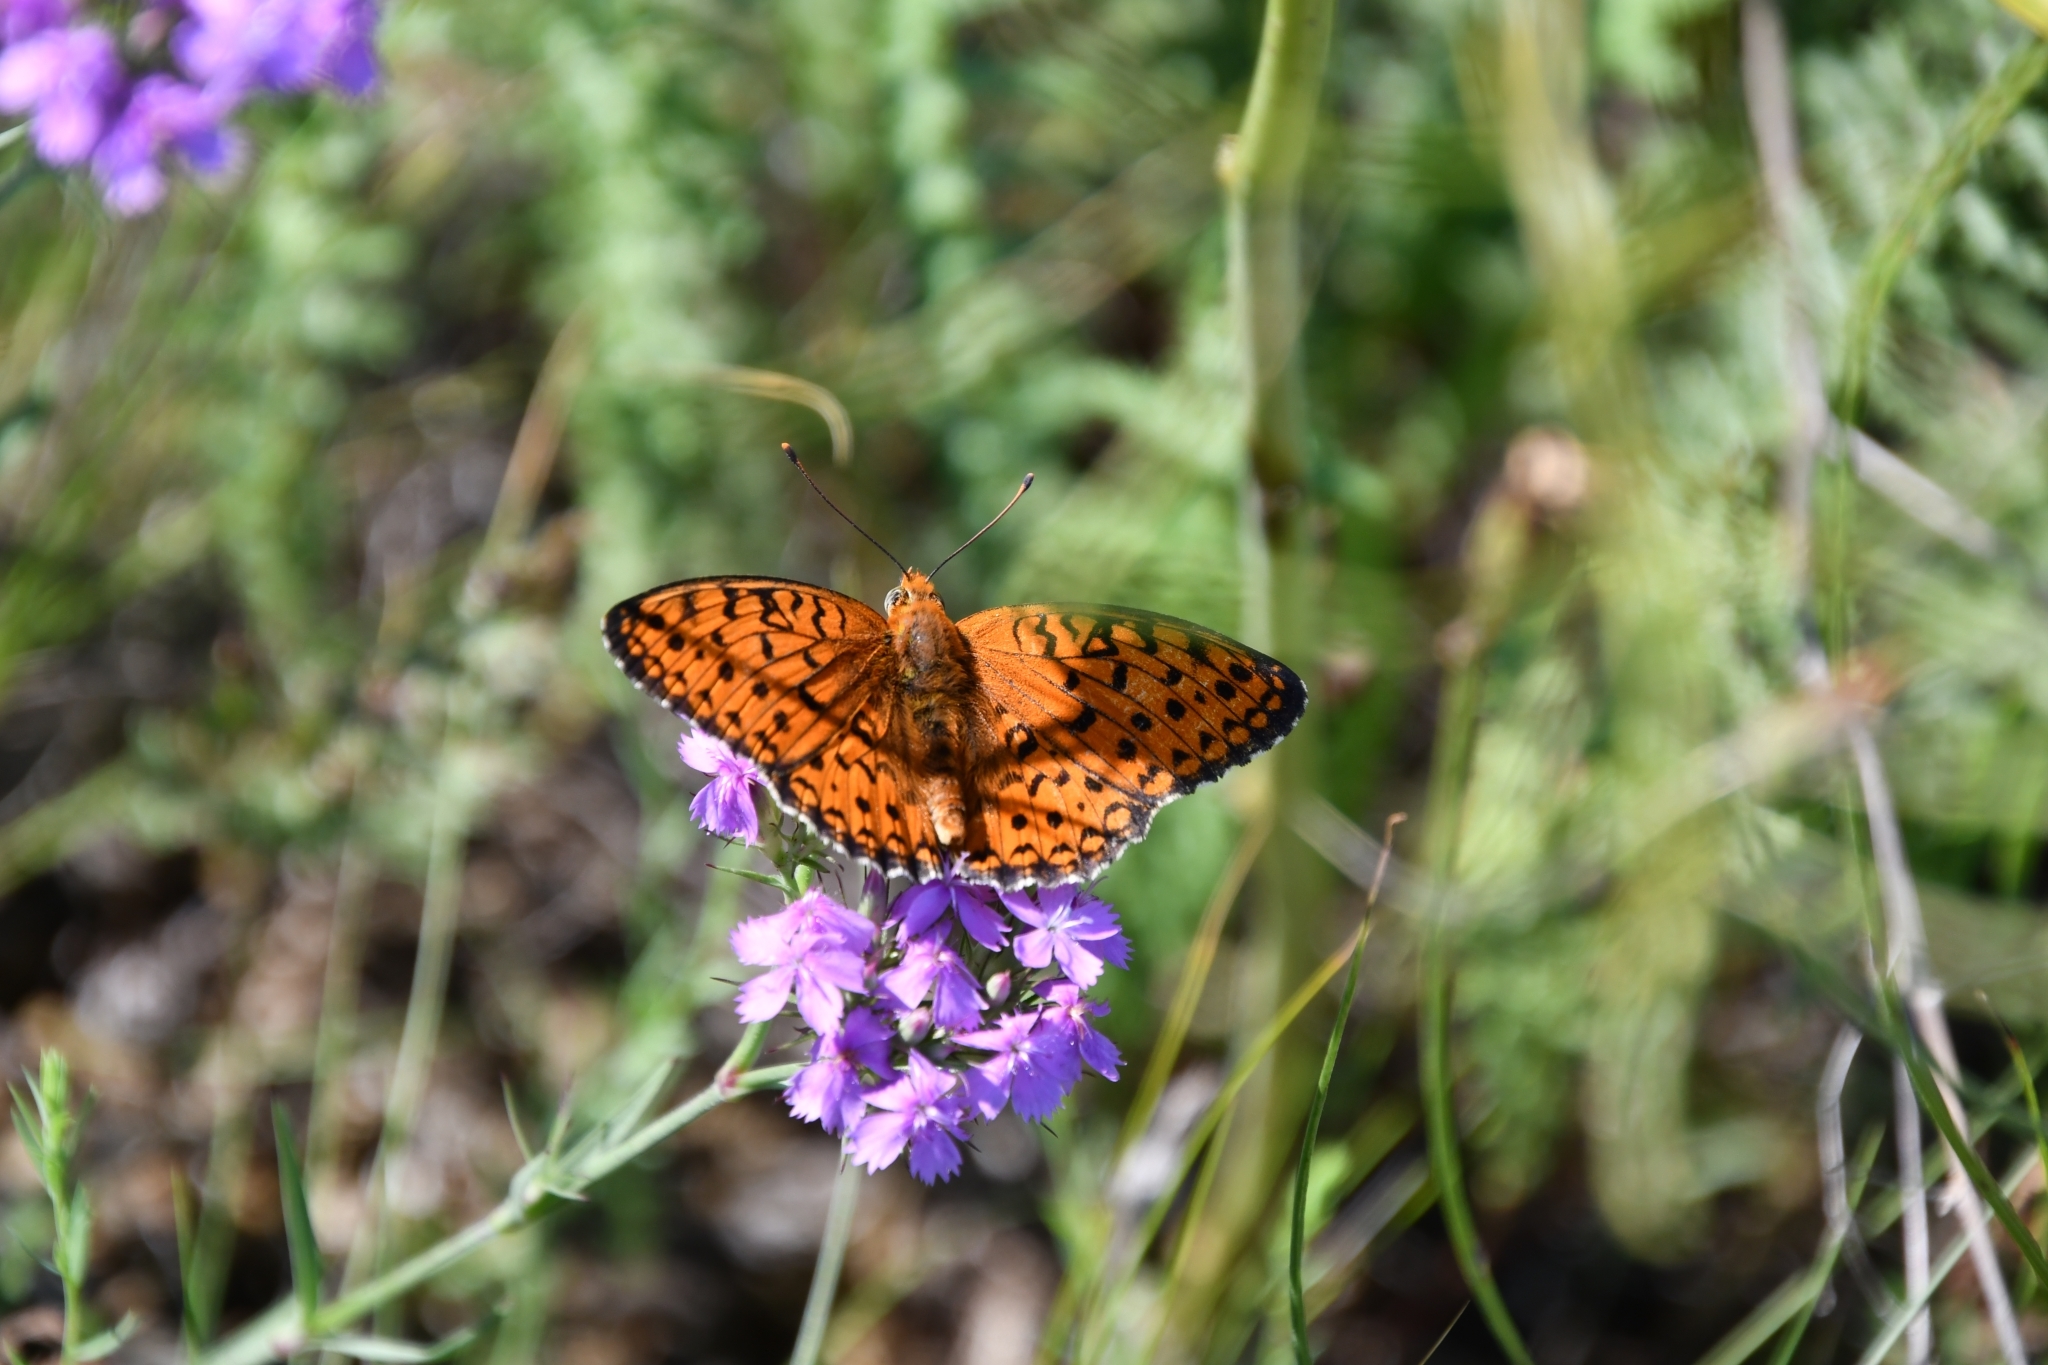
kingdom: Animalia
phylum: Arthropoda
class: Insecta
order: Lepidoptera
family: Nymphalidae
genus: Fabriciana
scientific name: Fabriciana niobe
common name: Niobe fritillary
